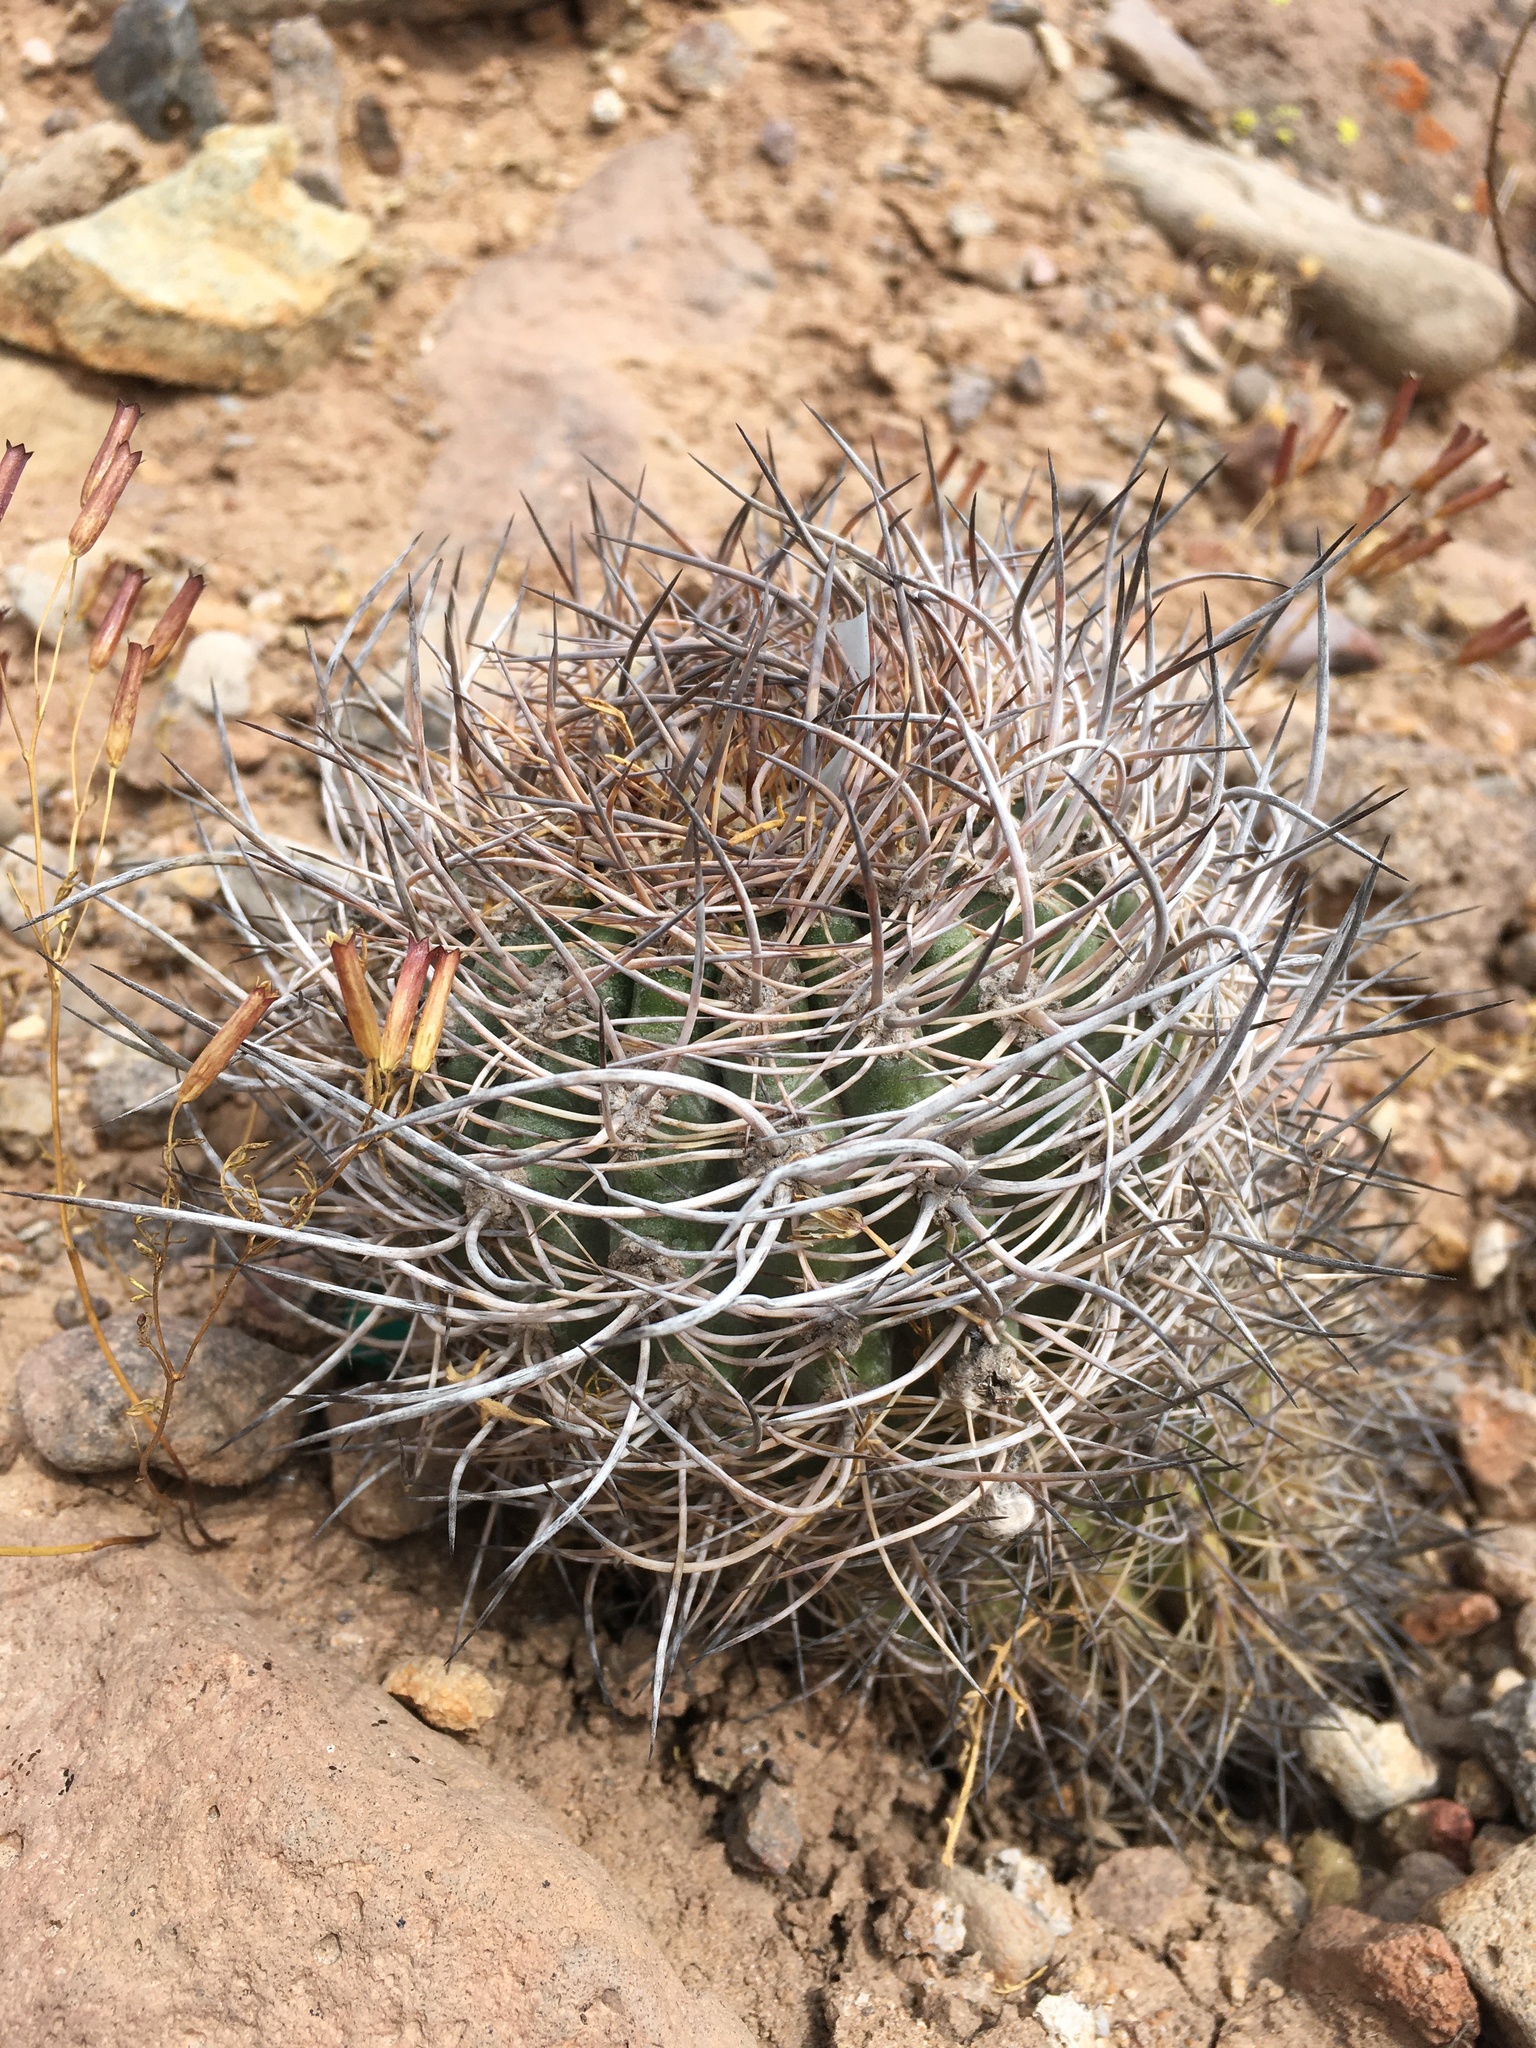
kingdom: Plantae
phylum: Tracheophyta
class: Magnoliopsida
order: Caryophyllales
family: Cactaceae
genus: Oreocereus
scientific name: Oreocereus hempelianus
